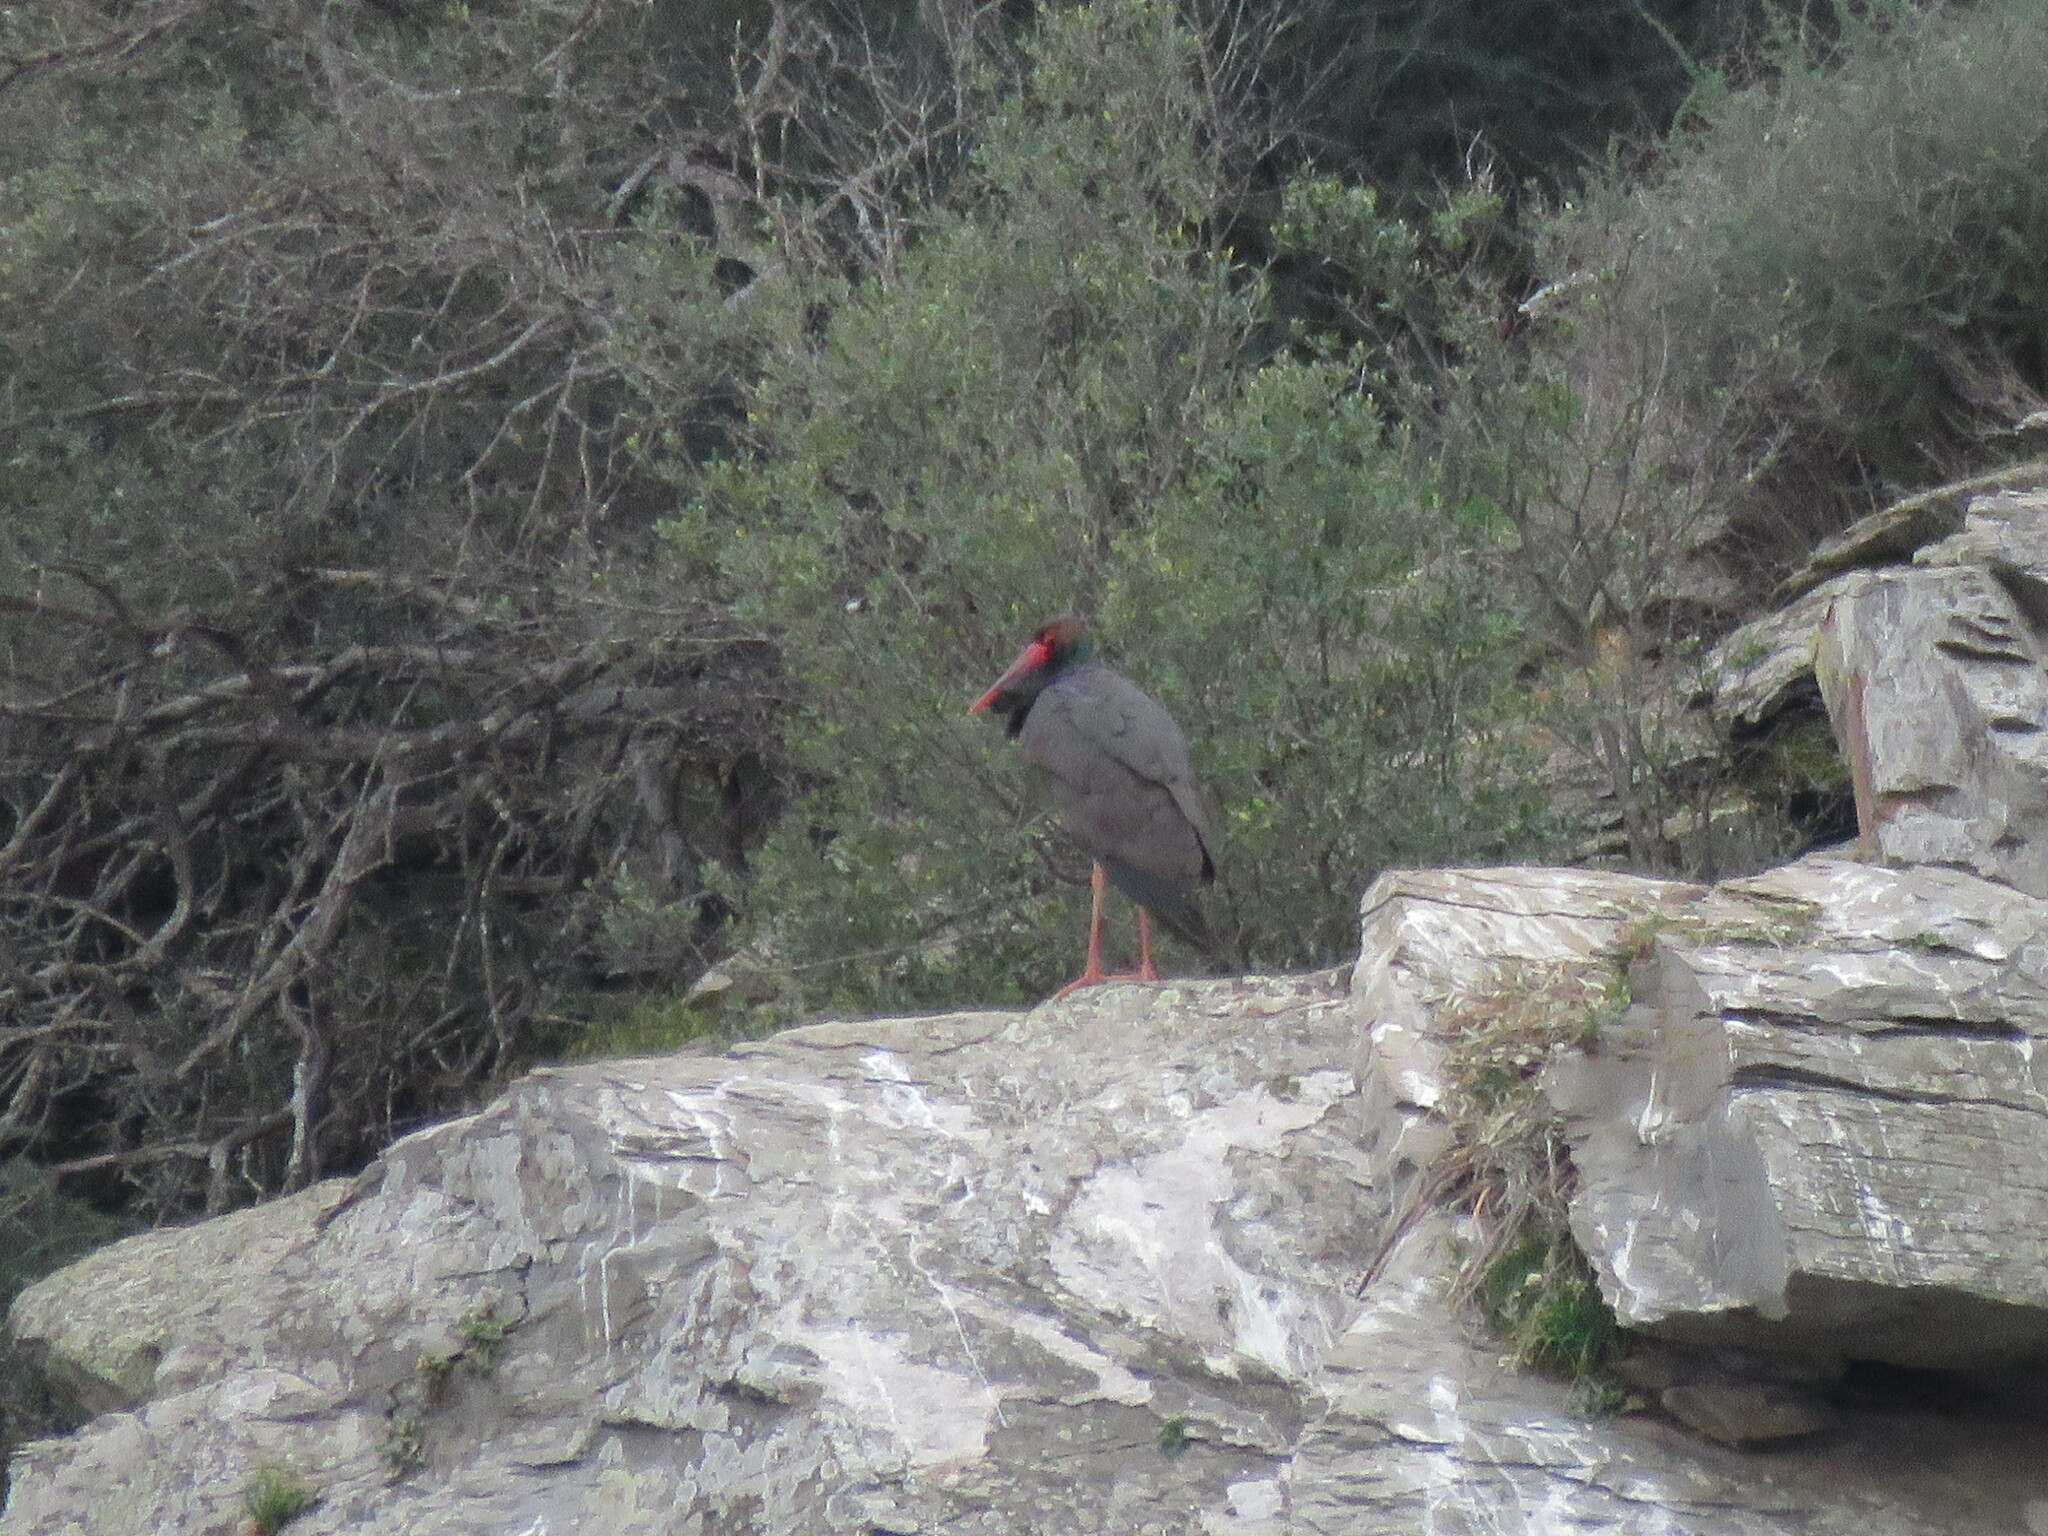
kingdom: Animalia
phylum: Chordata
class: Aves
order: Ciconiiformes
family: Ciconiidae
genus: Ciconia
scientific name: Ciconia nigra
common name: Black stork
